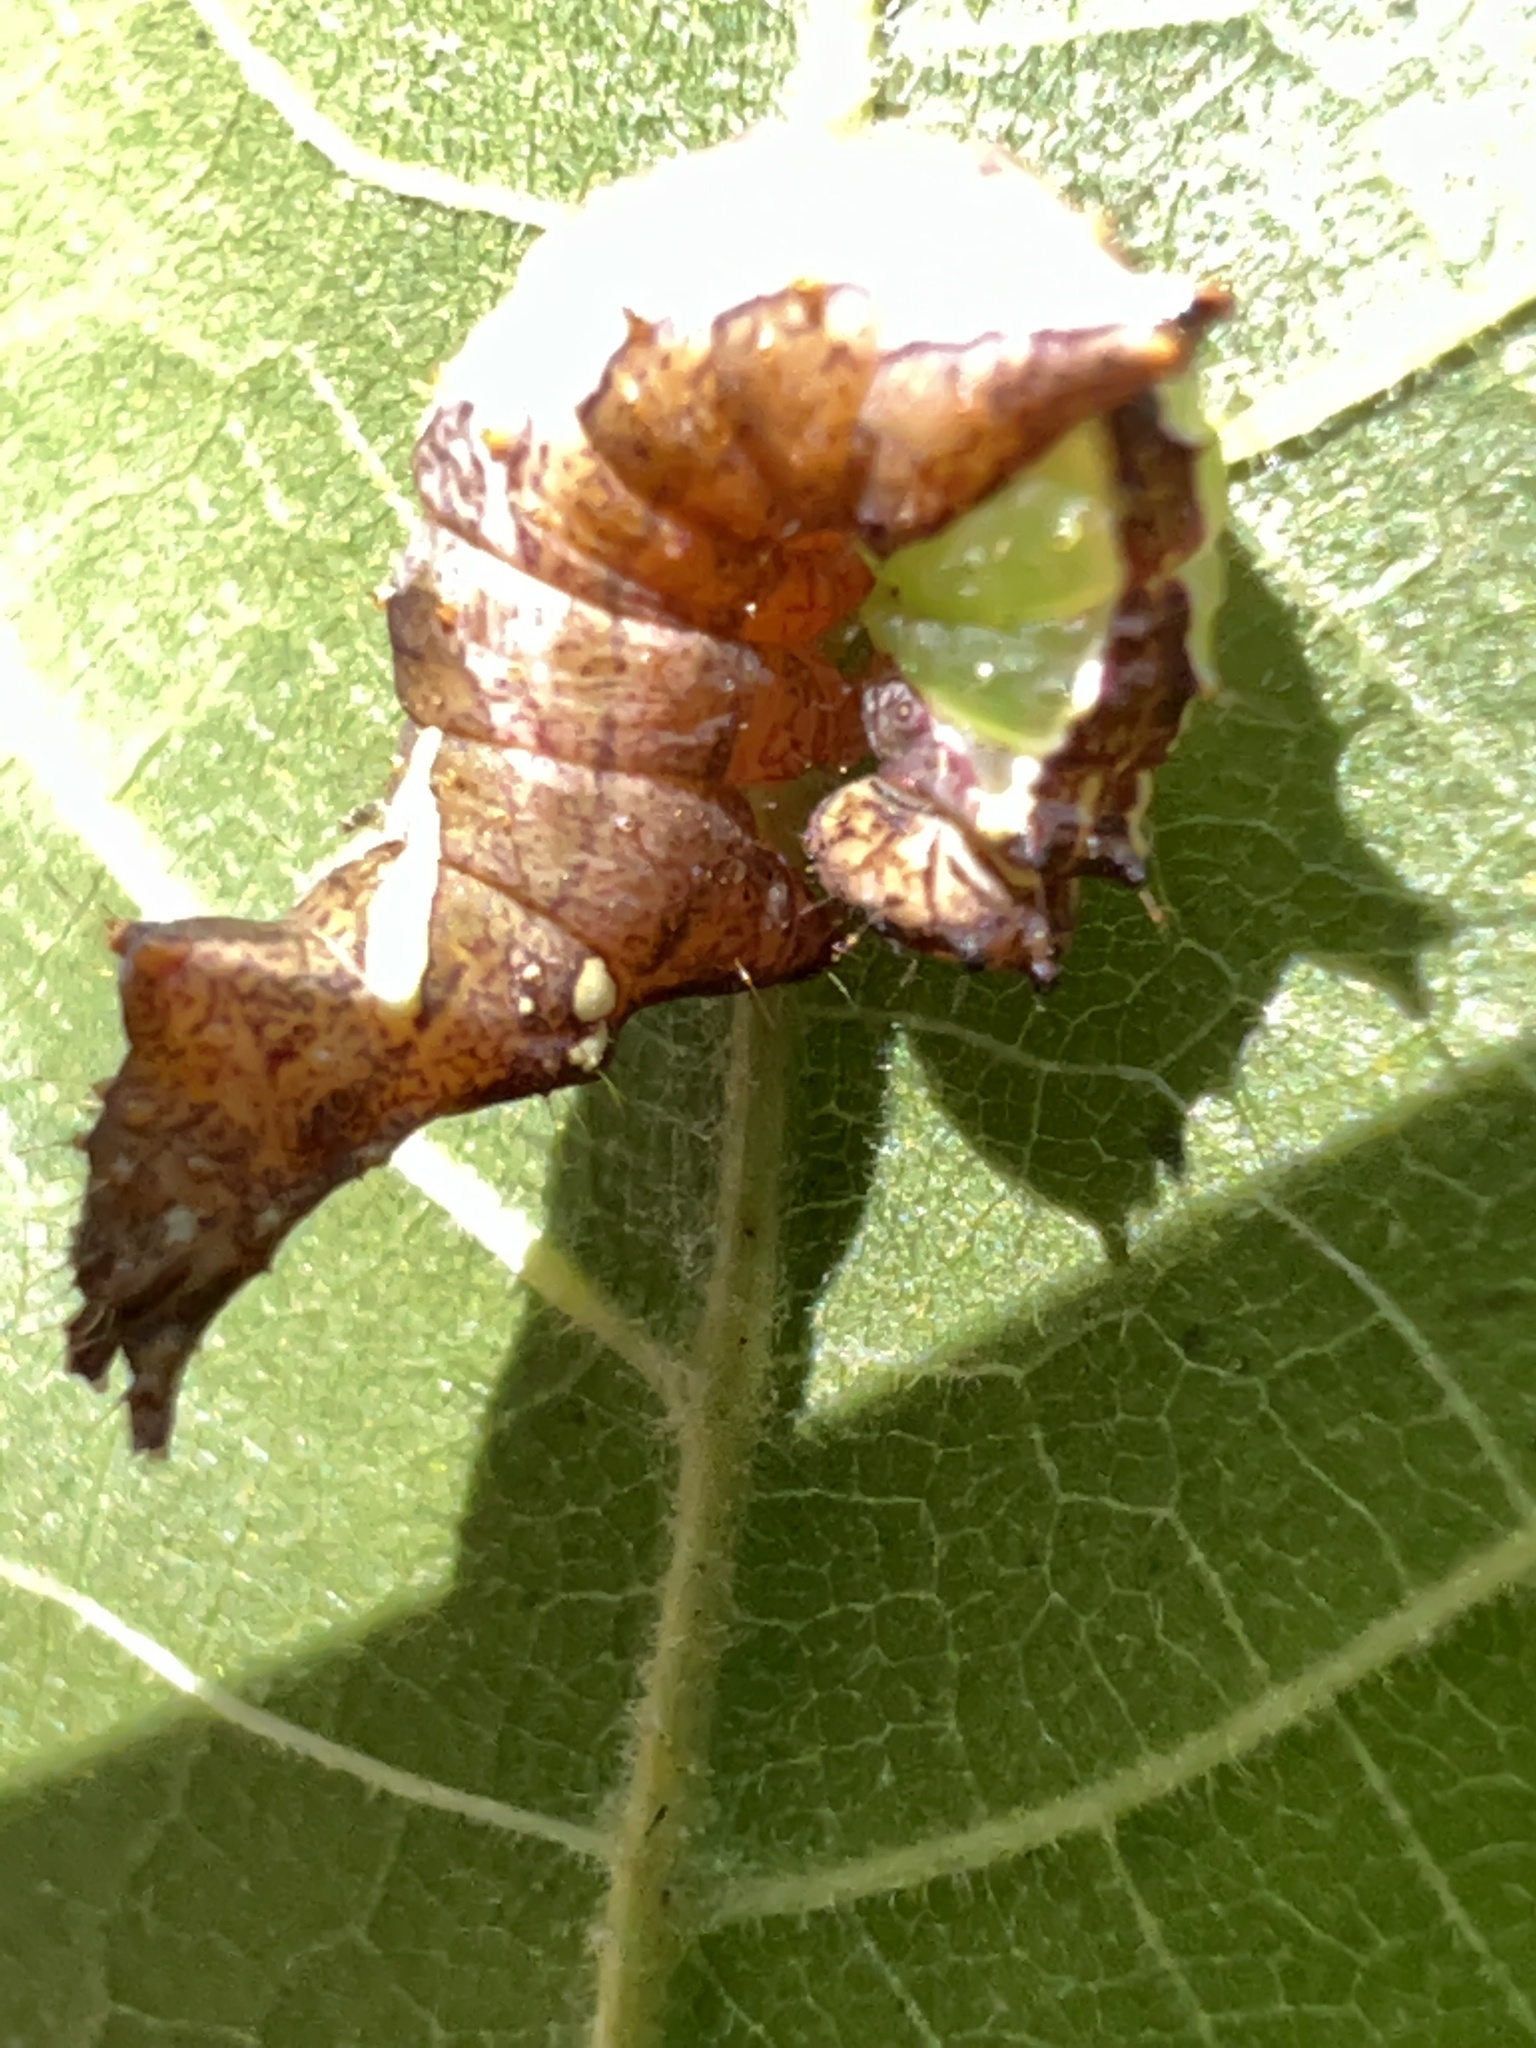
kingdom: Animalia
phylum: Arthropoda
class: Insecta
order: Lepidoptera
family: Notodontidae
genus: Schizura
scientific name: Schizura
